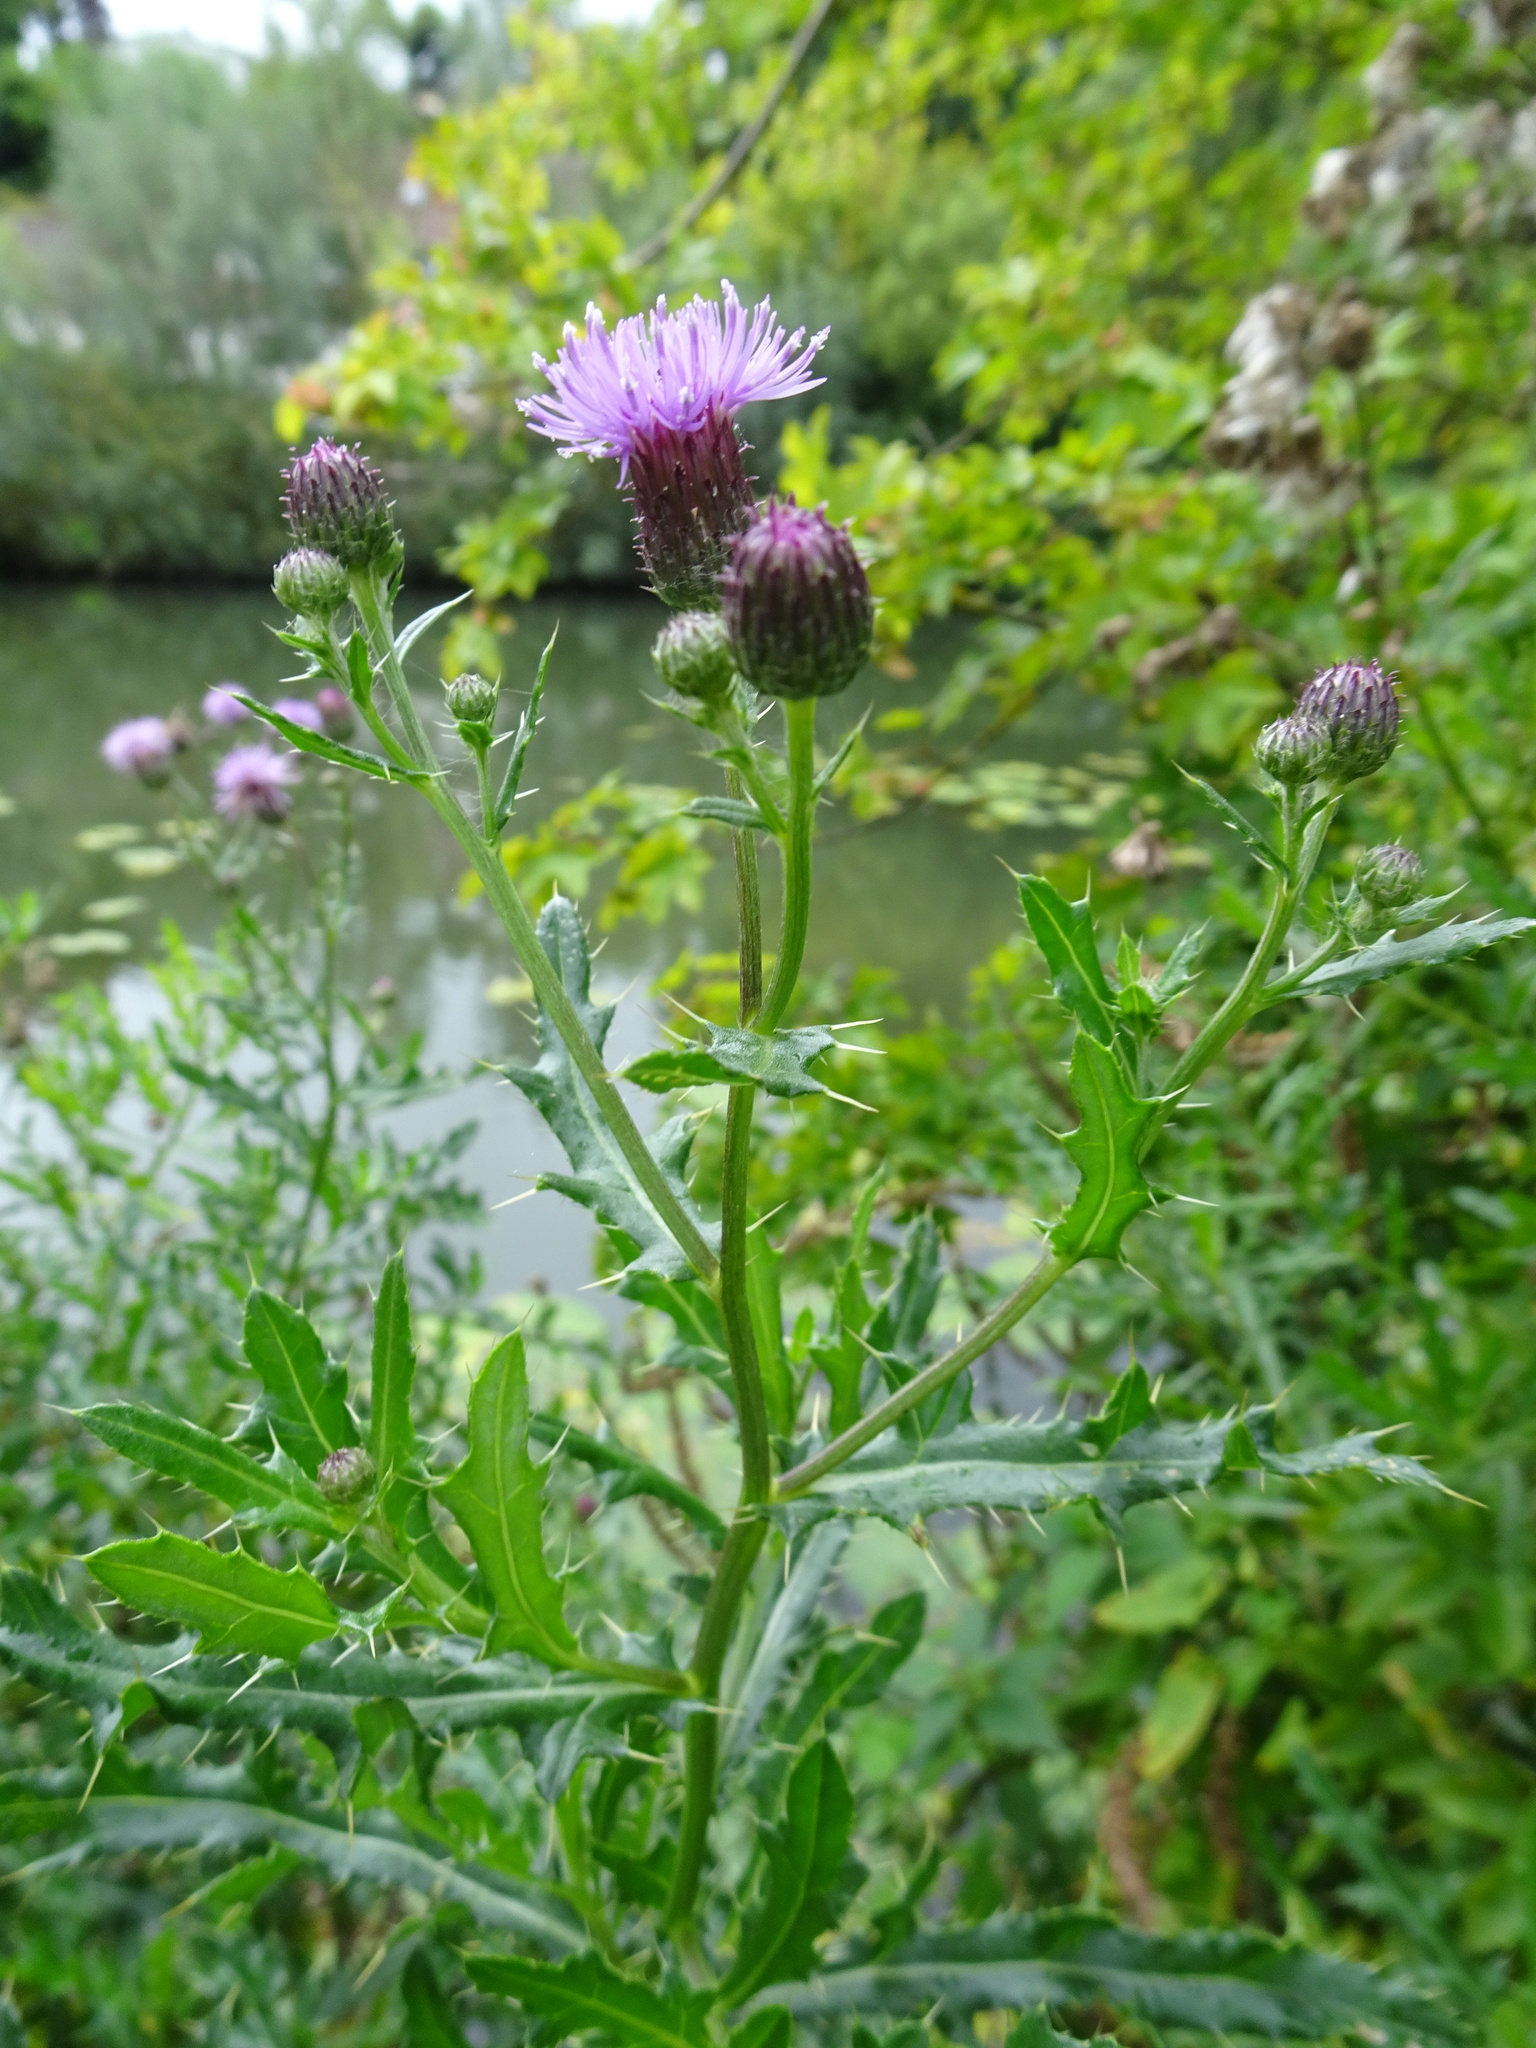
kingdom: Plantae
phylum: Tracheophyta
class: Magnoliopsida
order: Asterales
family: Asteraceae
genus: Cirsium
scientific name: Cirsium arvense
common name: Creeping thistle
